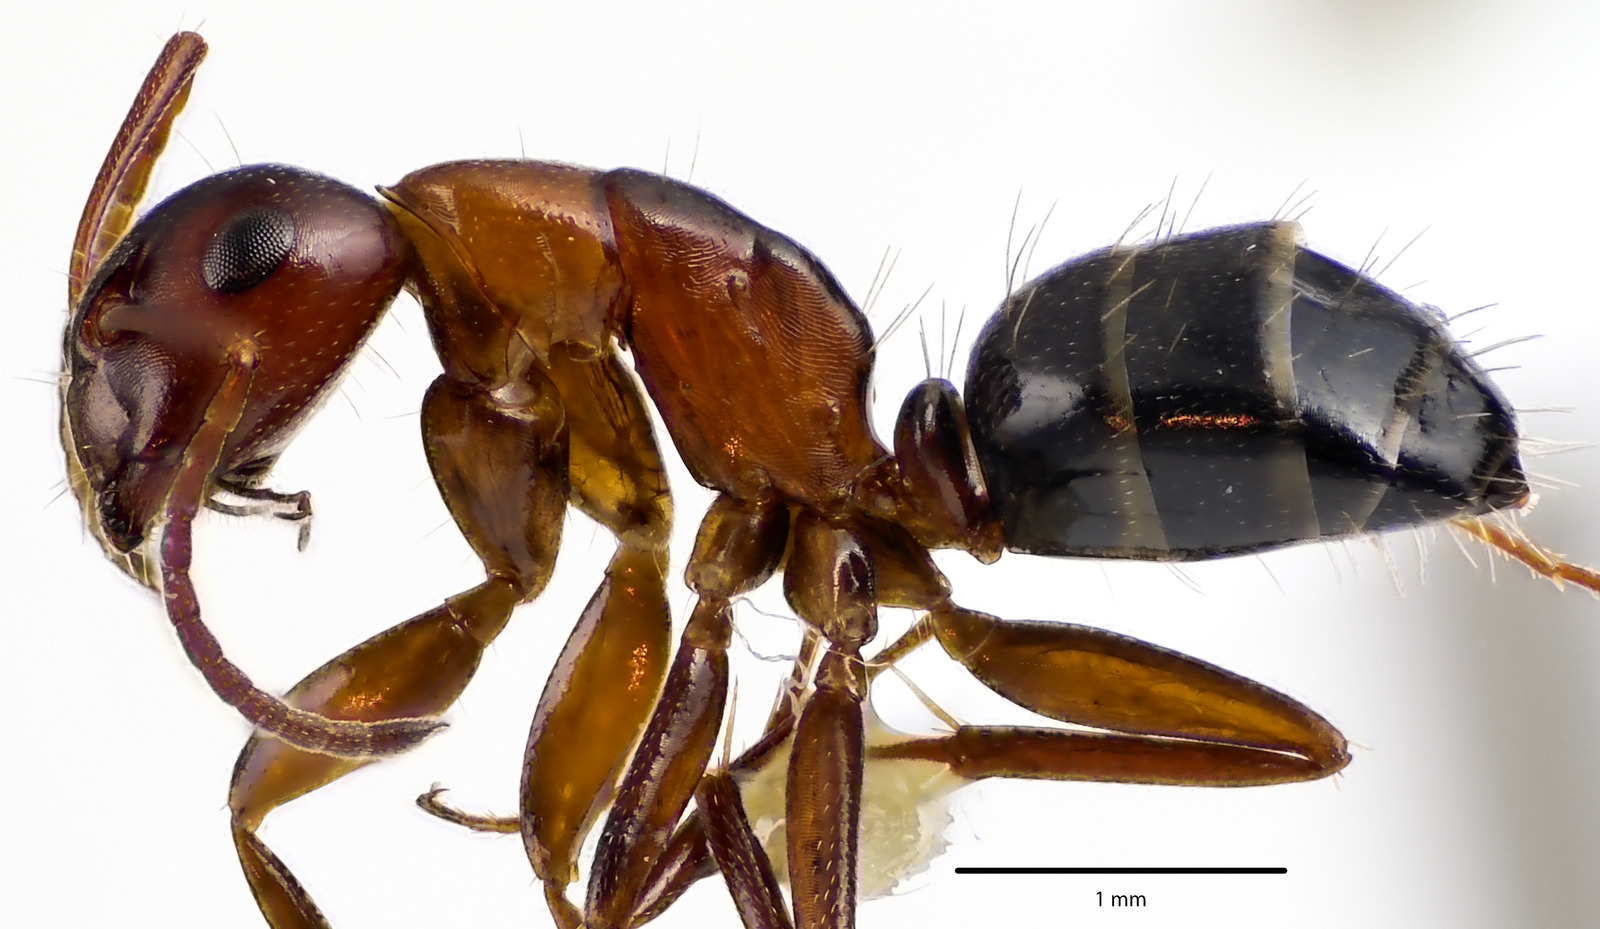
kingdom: Animalia
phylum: Arthropoda
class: Insecta
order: Hymenoptera
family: Formicidae
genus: Camponotus
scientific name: Camponotus essigi
